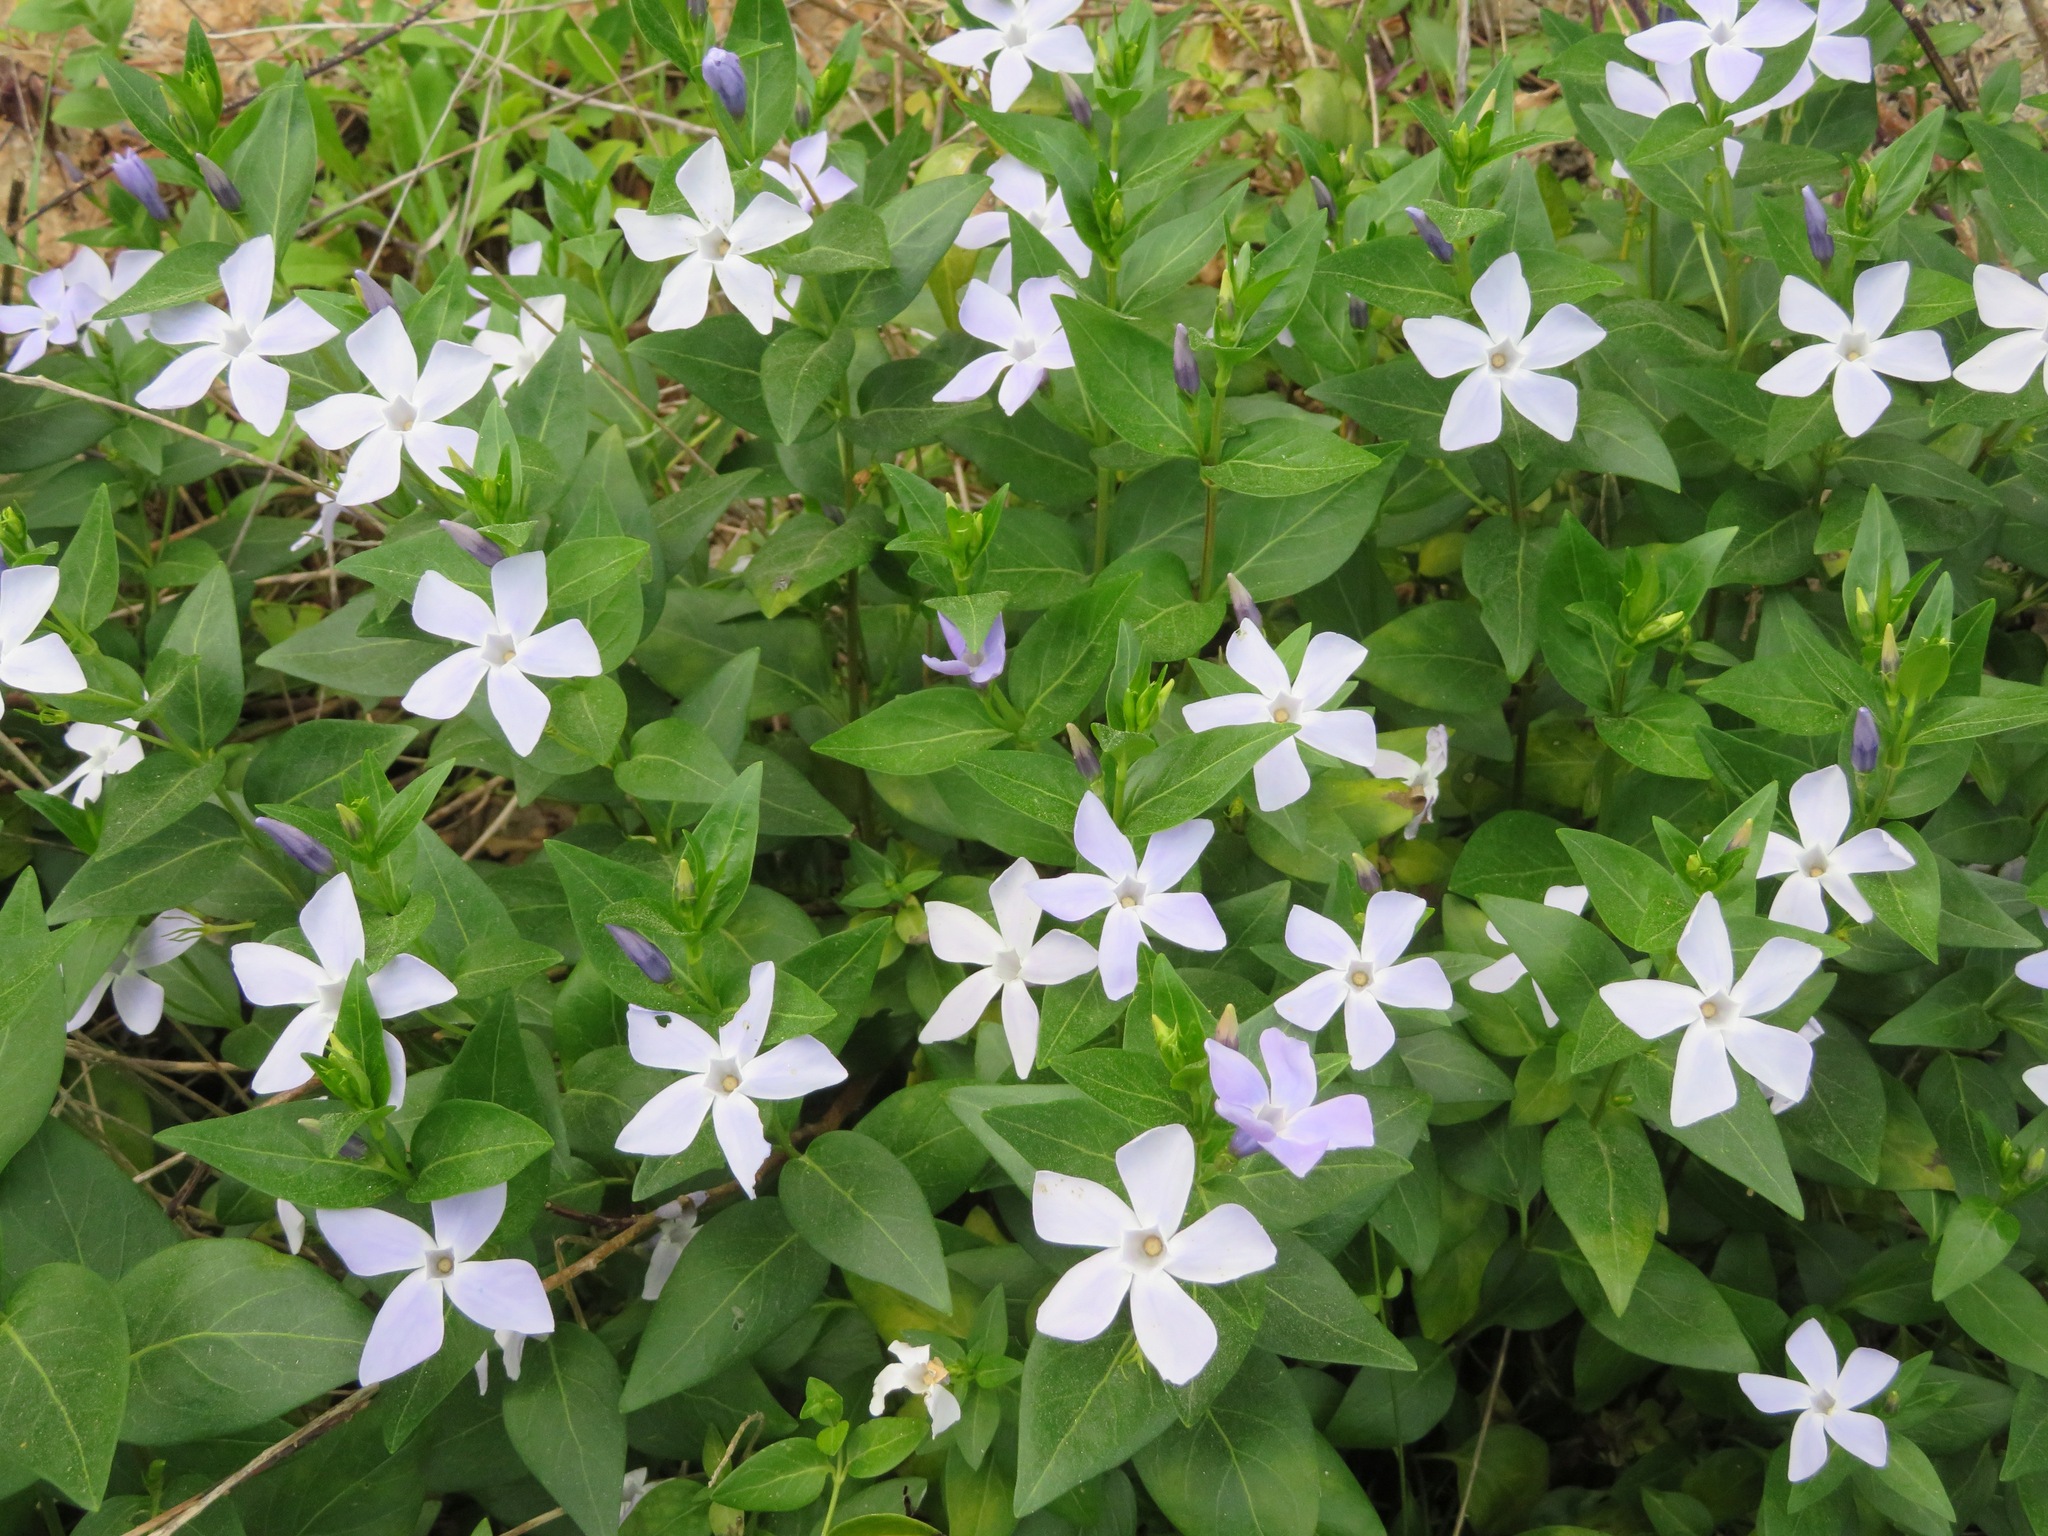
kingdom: Plantae
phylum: Tracheophyta
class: Magnoliopsida
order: Gentianales
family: Apocynaceae
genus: Vinca
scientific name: Vinca difformis
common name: Intermediate periwinkle
